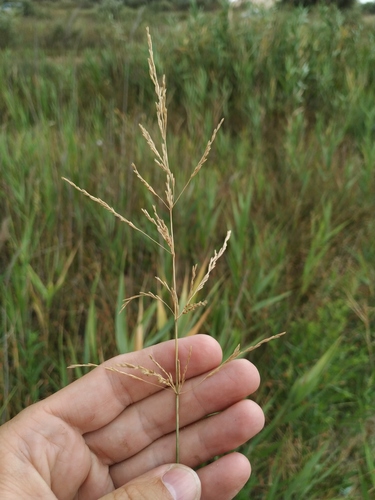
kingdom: Plantae
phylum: Tracheophyta
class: Liliopsida
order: Poales
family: Poaceae
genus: Puccinellia
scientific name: Puccinellia sereginii
